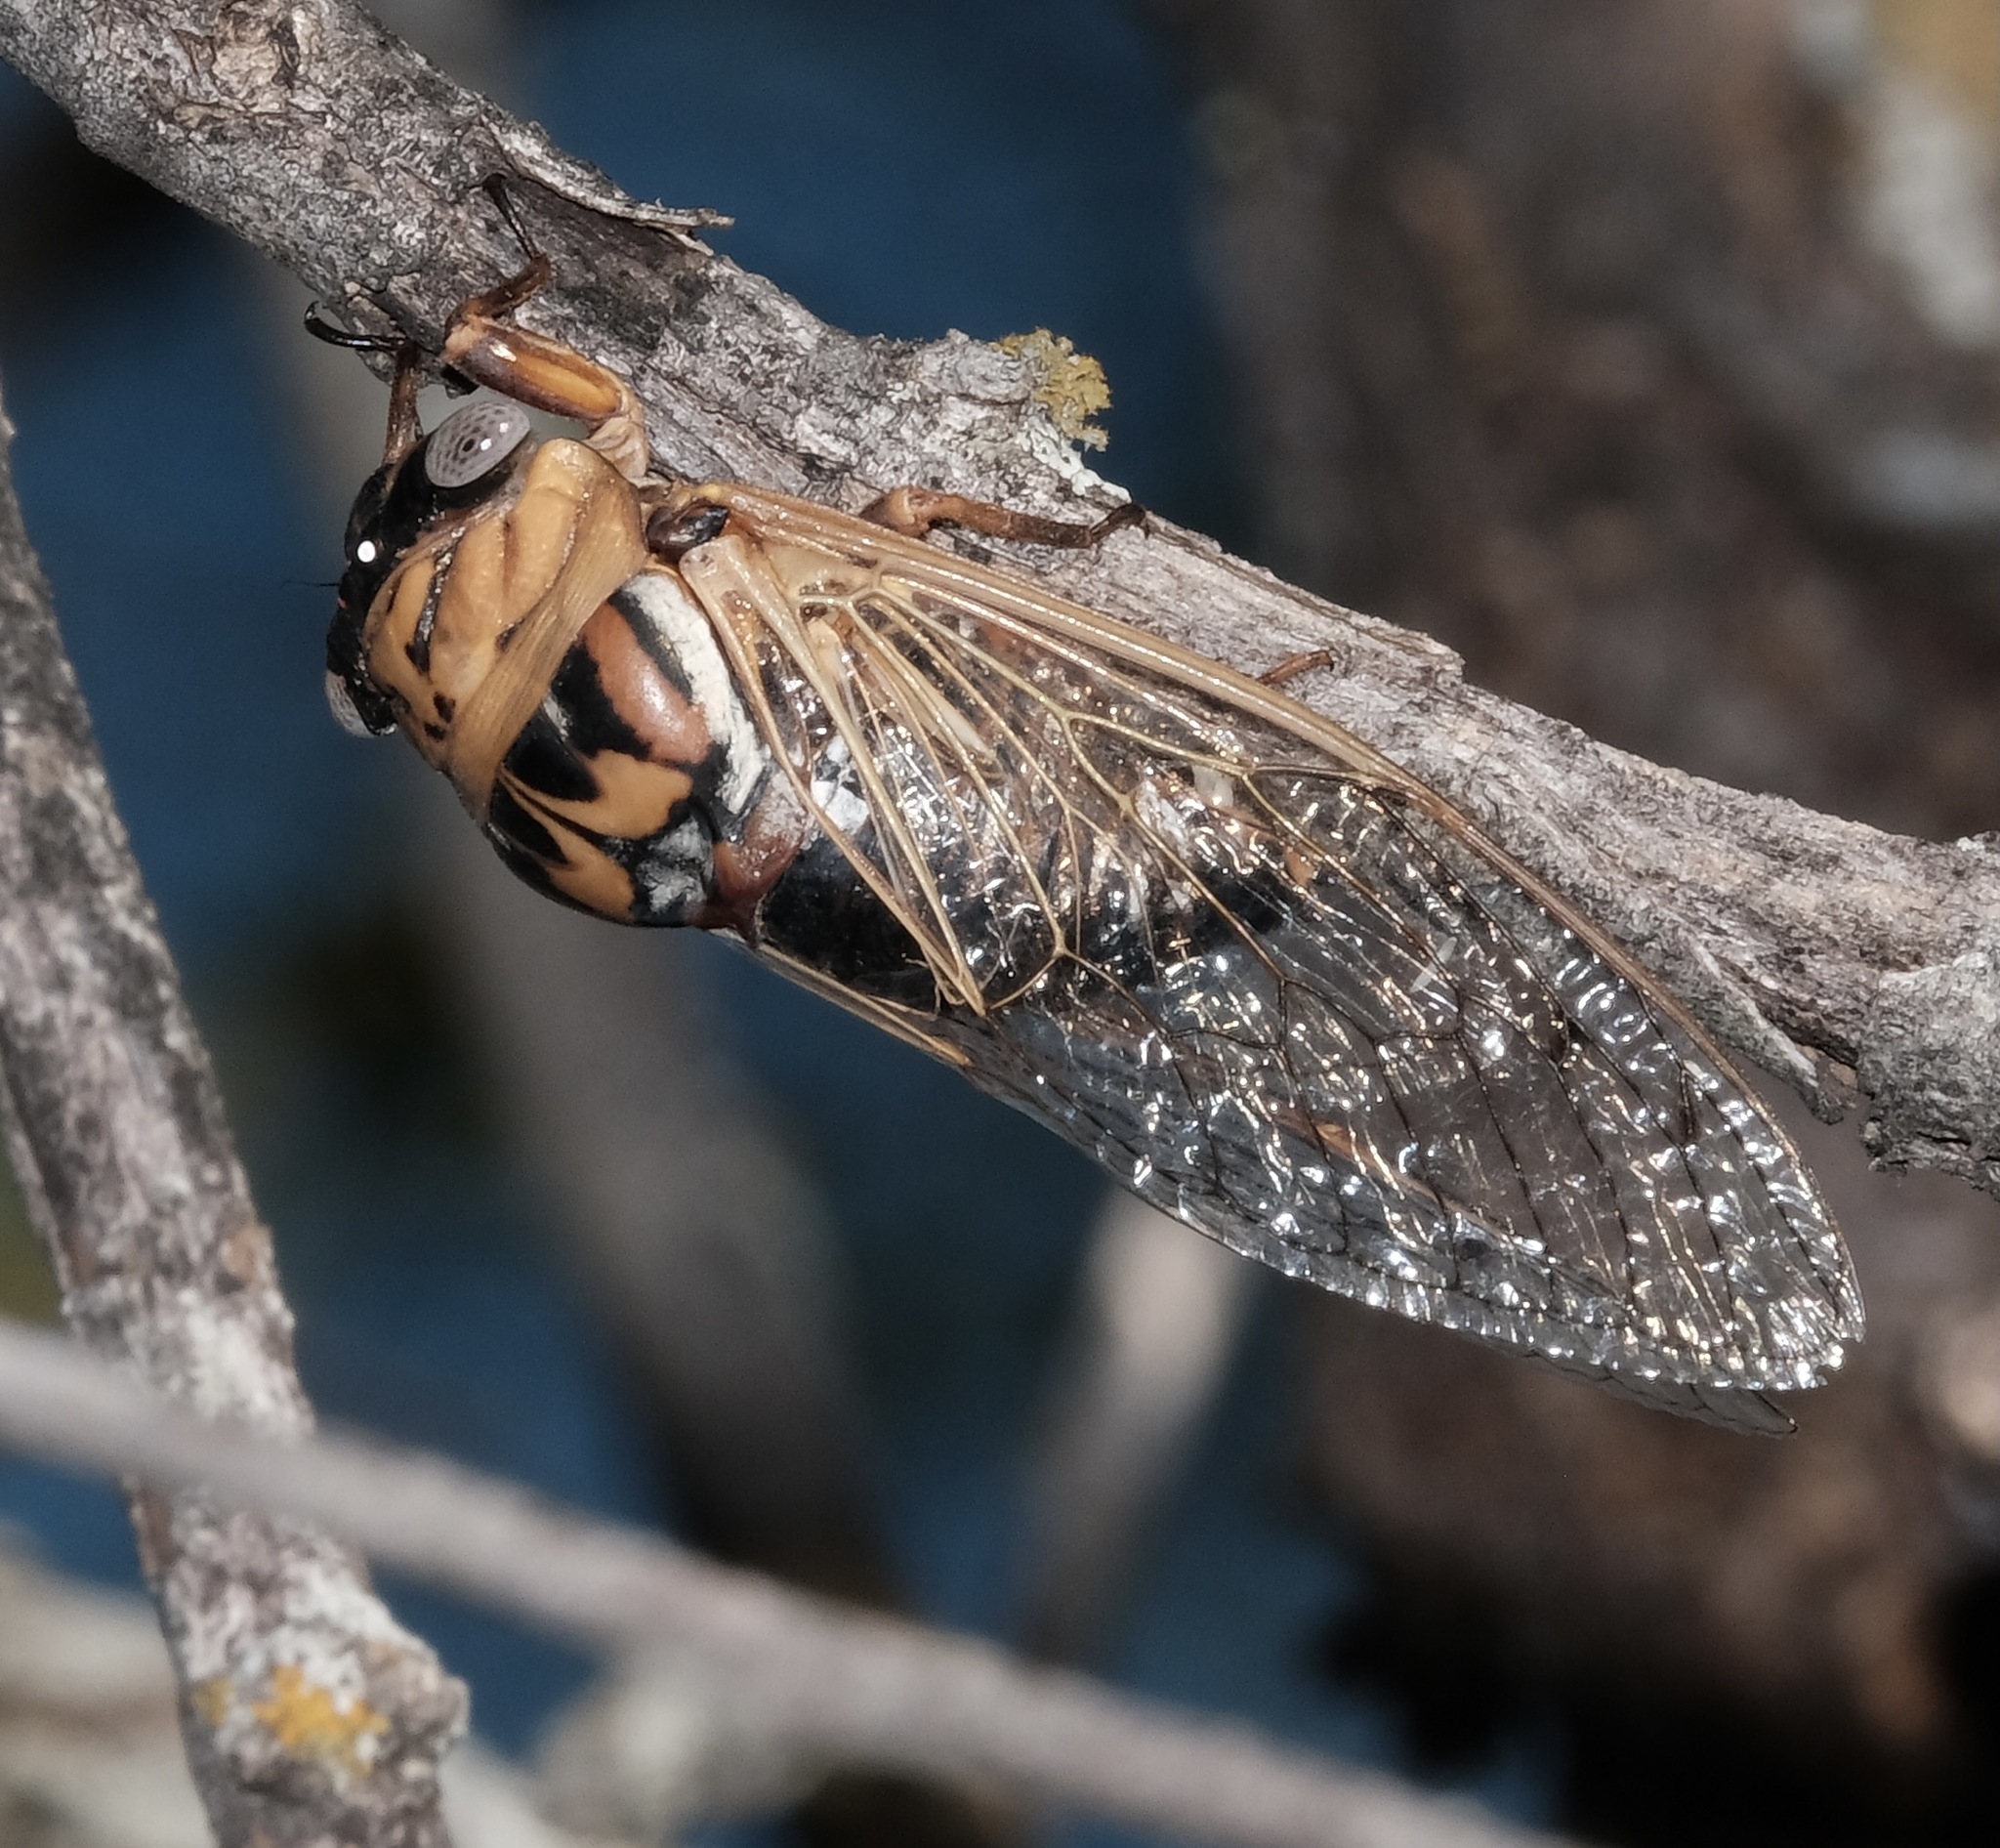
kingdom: Animalia
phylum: Arthropoda
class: Insecta
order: Hemiptera
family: Cicadidae
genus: Megatibicen
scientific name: Megatibicen resh
